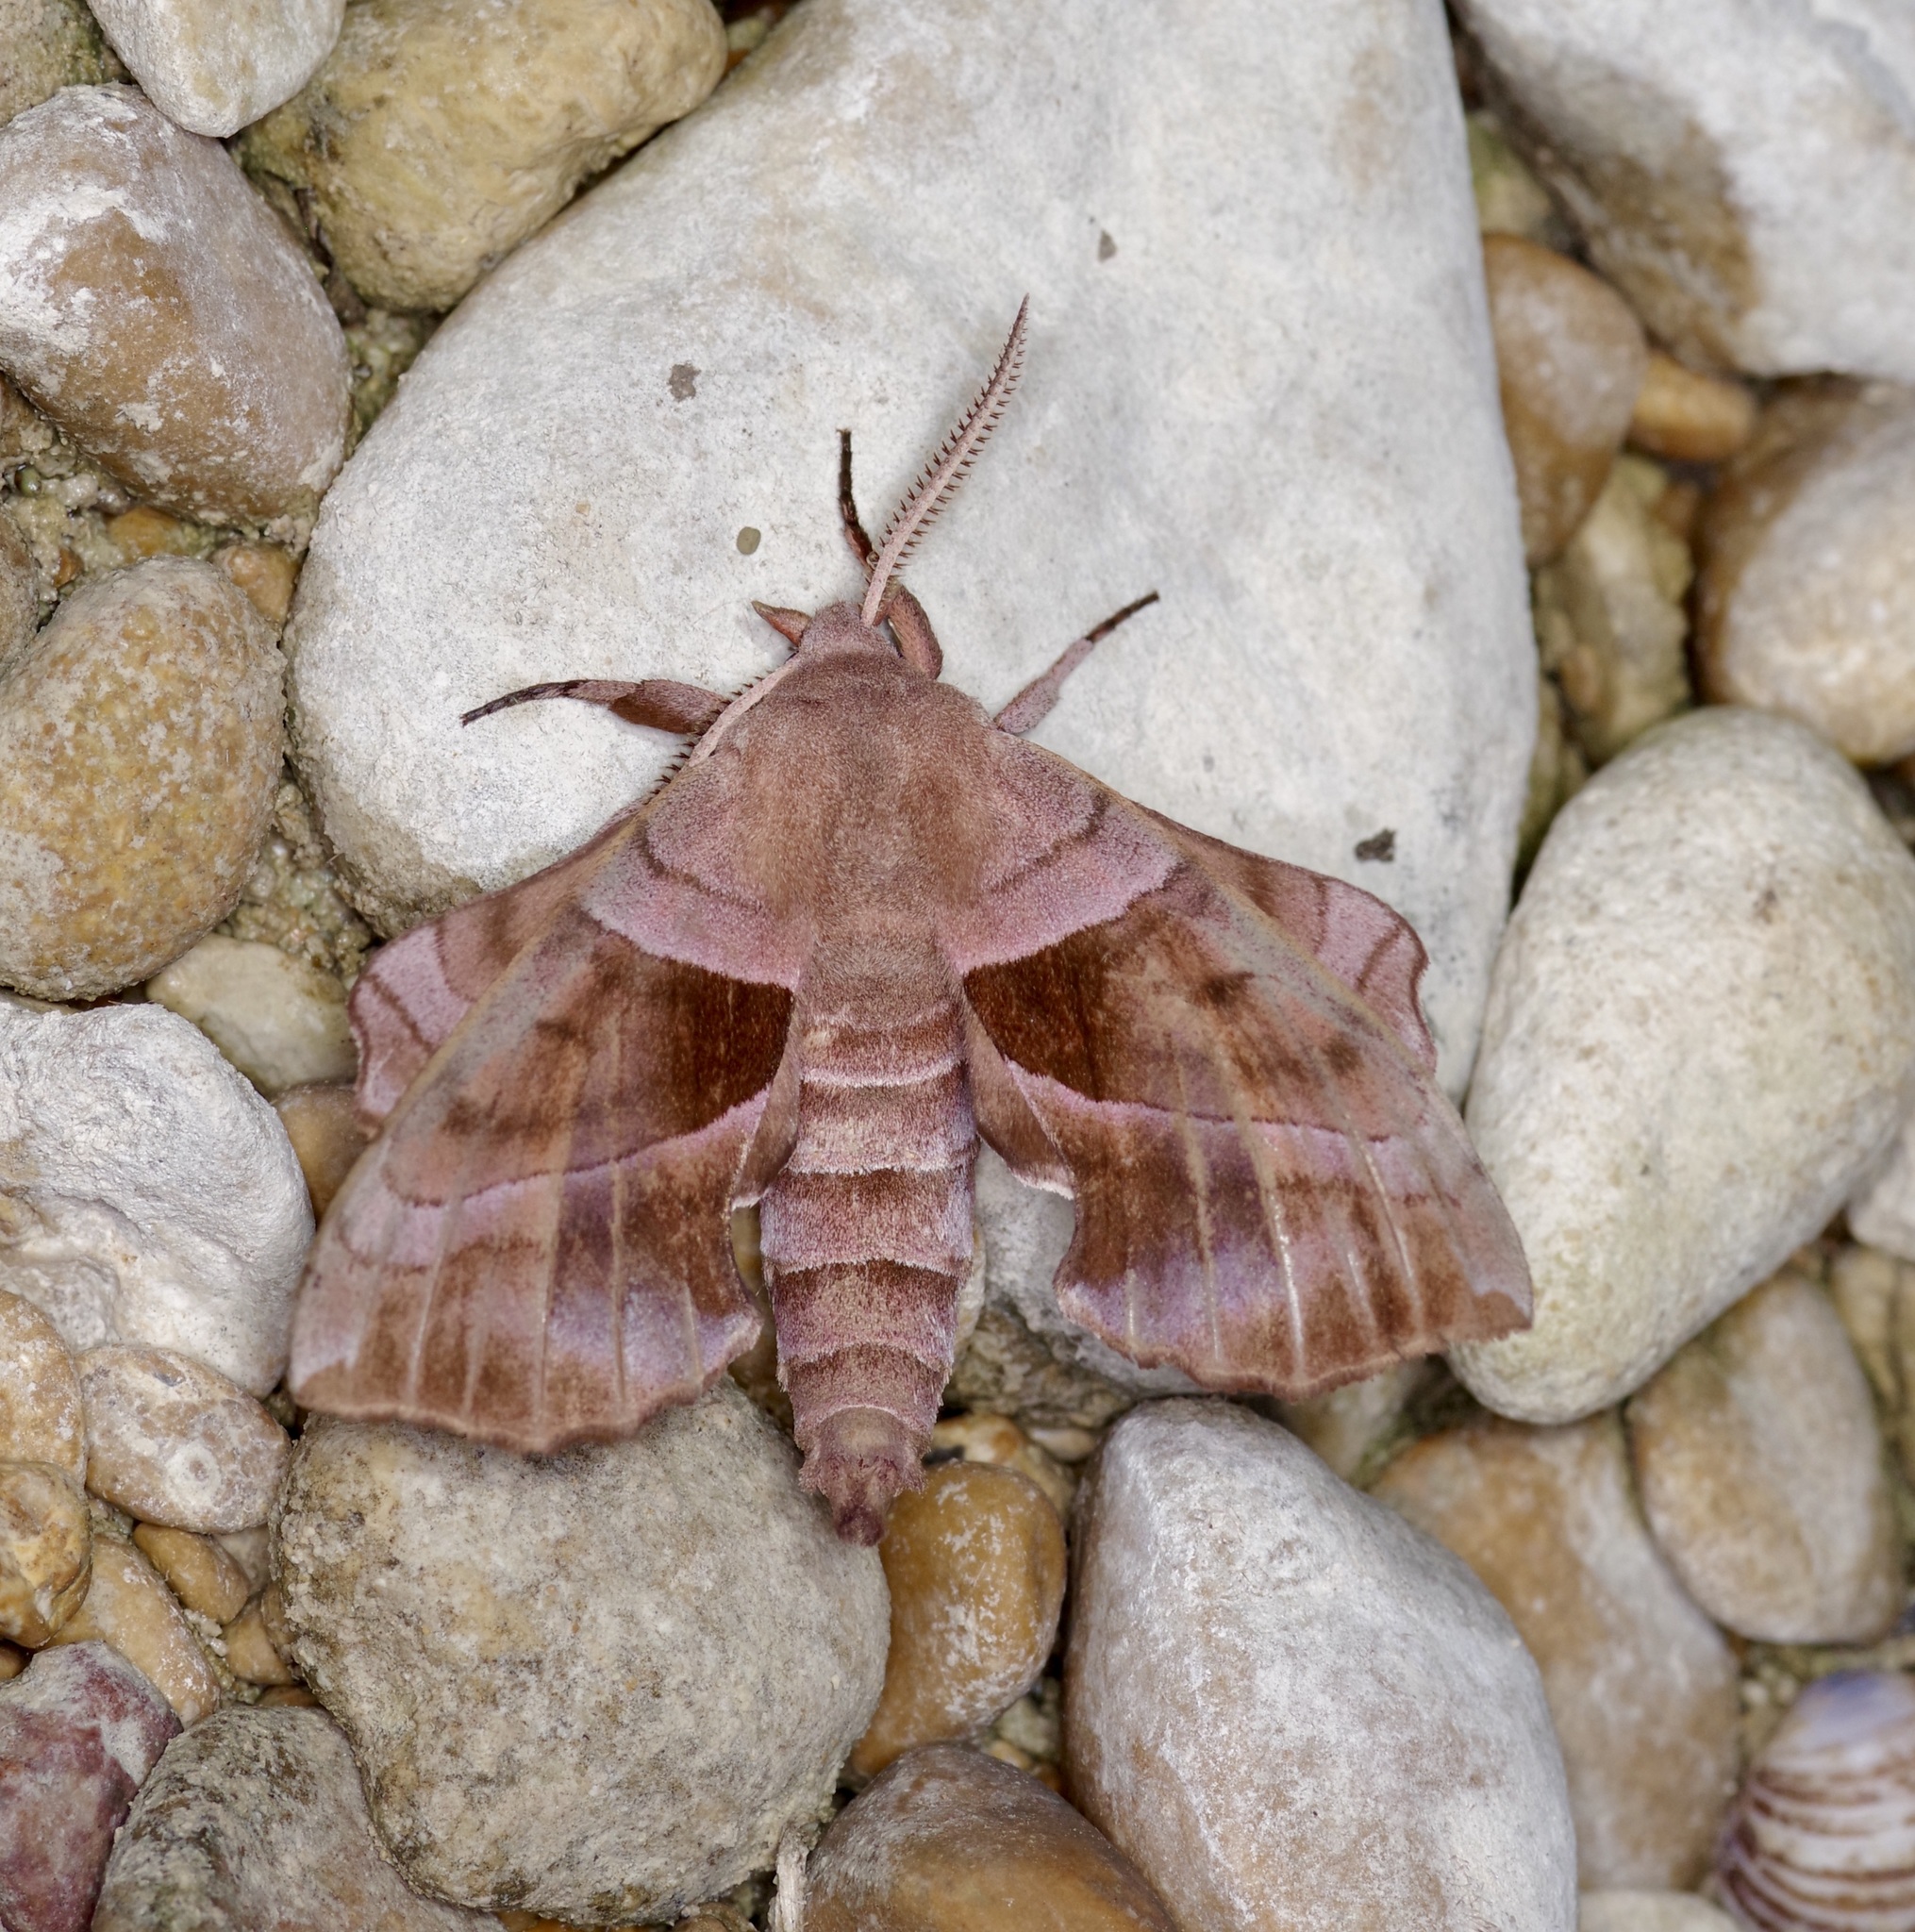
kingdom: Animalia
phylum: Arthropoda
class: Insecta
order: Lepidoptera
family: Sphingidae
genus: Amorpha
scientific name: Amorpha juglandis
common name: Walnut sphinx
